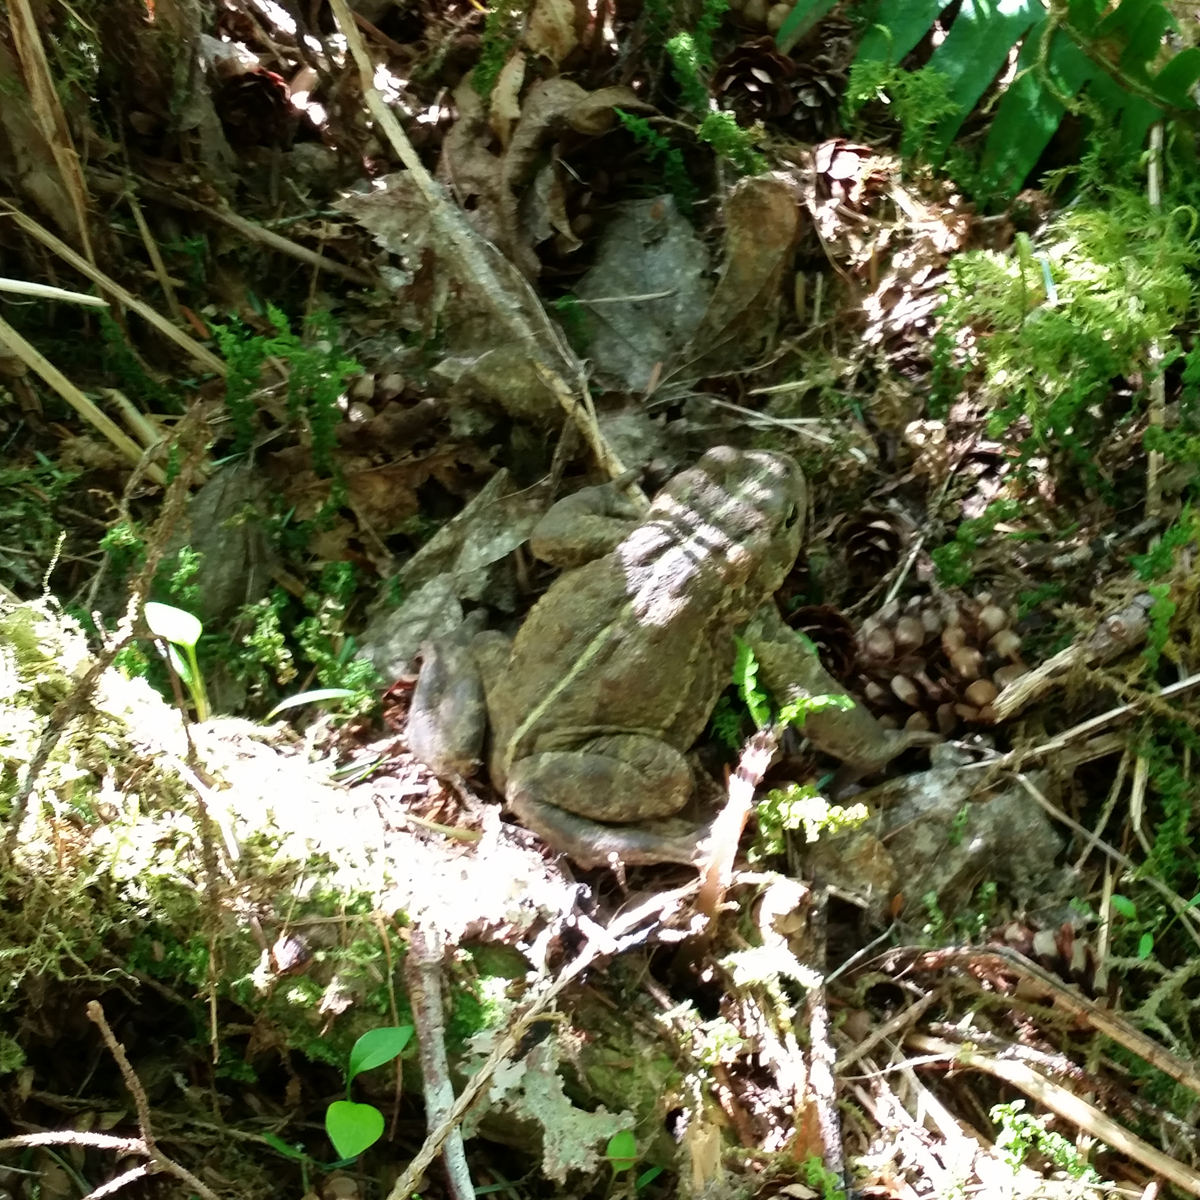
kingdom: Animalia
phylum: Chordata
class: Amphibia
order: Anura
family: Bufonidae
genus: Anaxyrus
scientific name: Anaxyrus boreas
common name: Western toad
